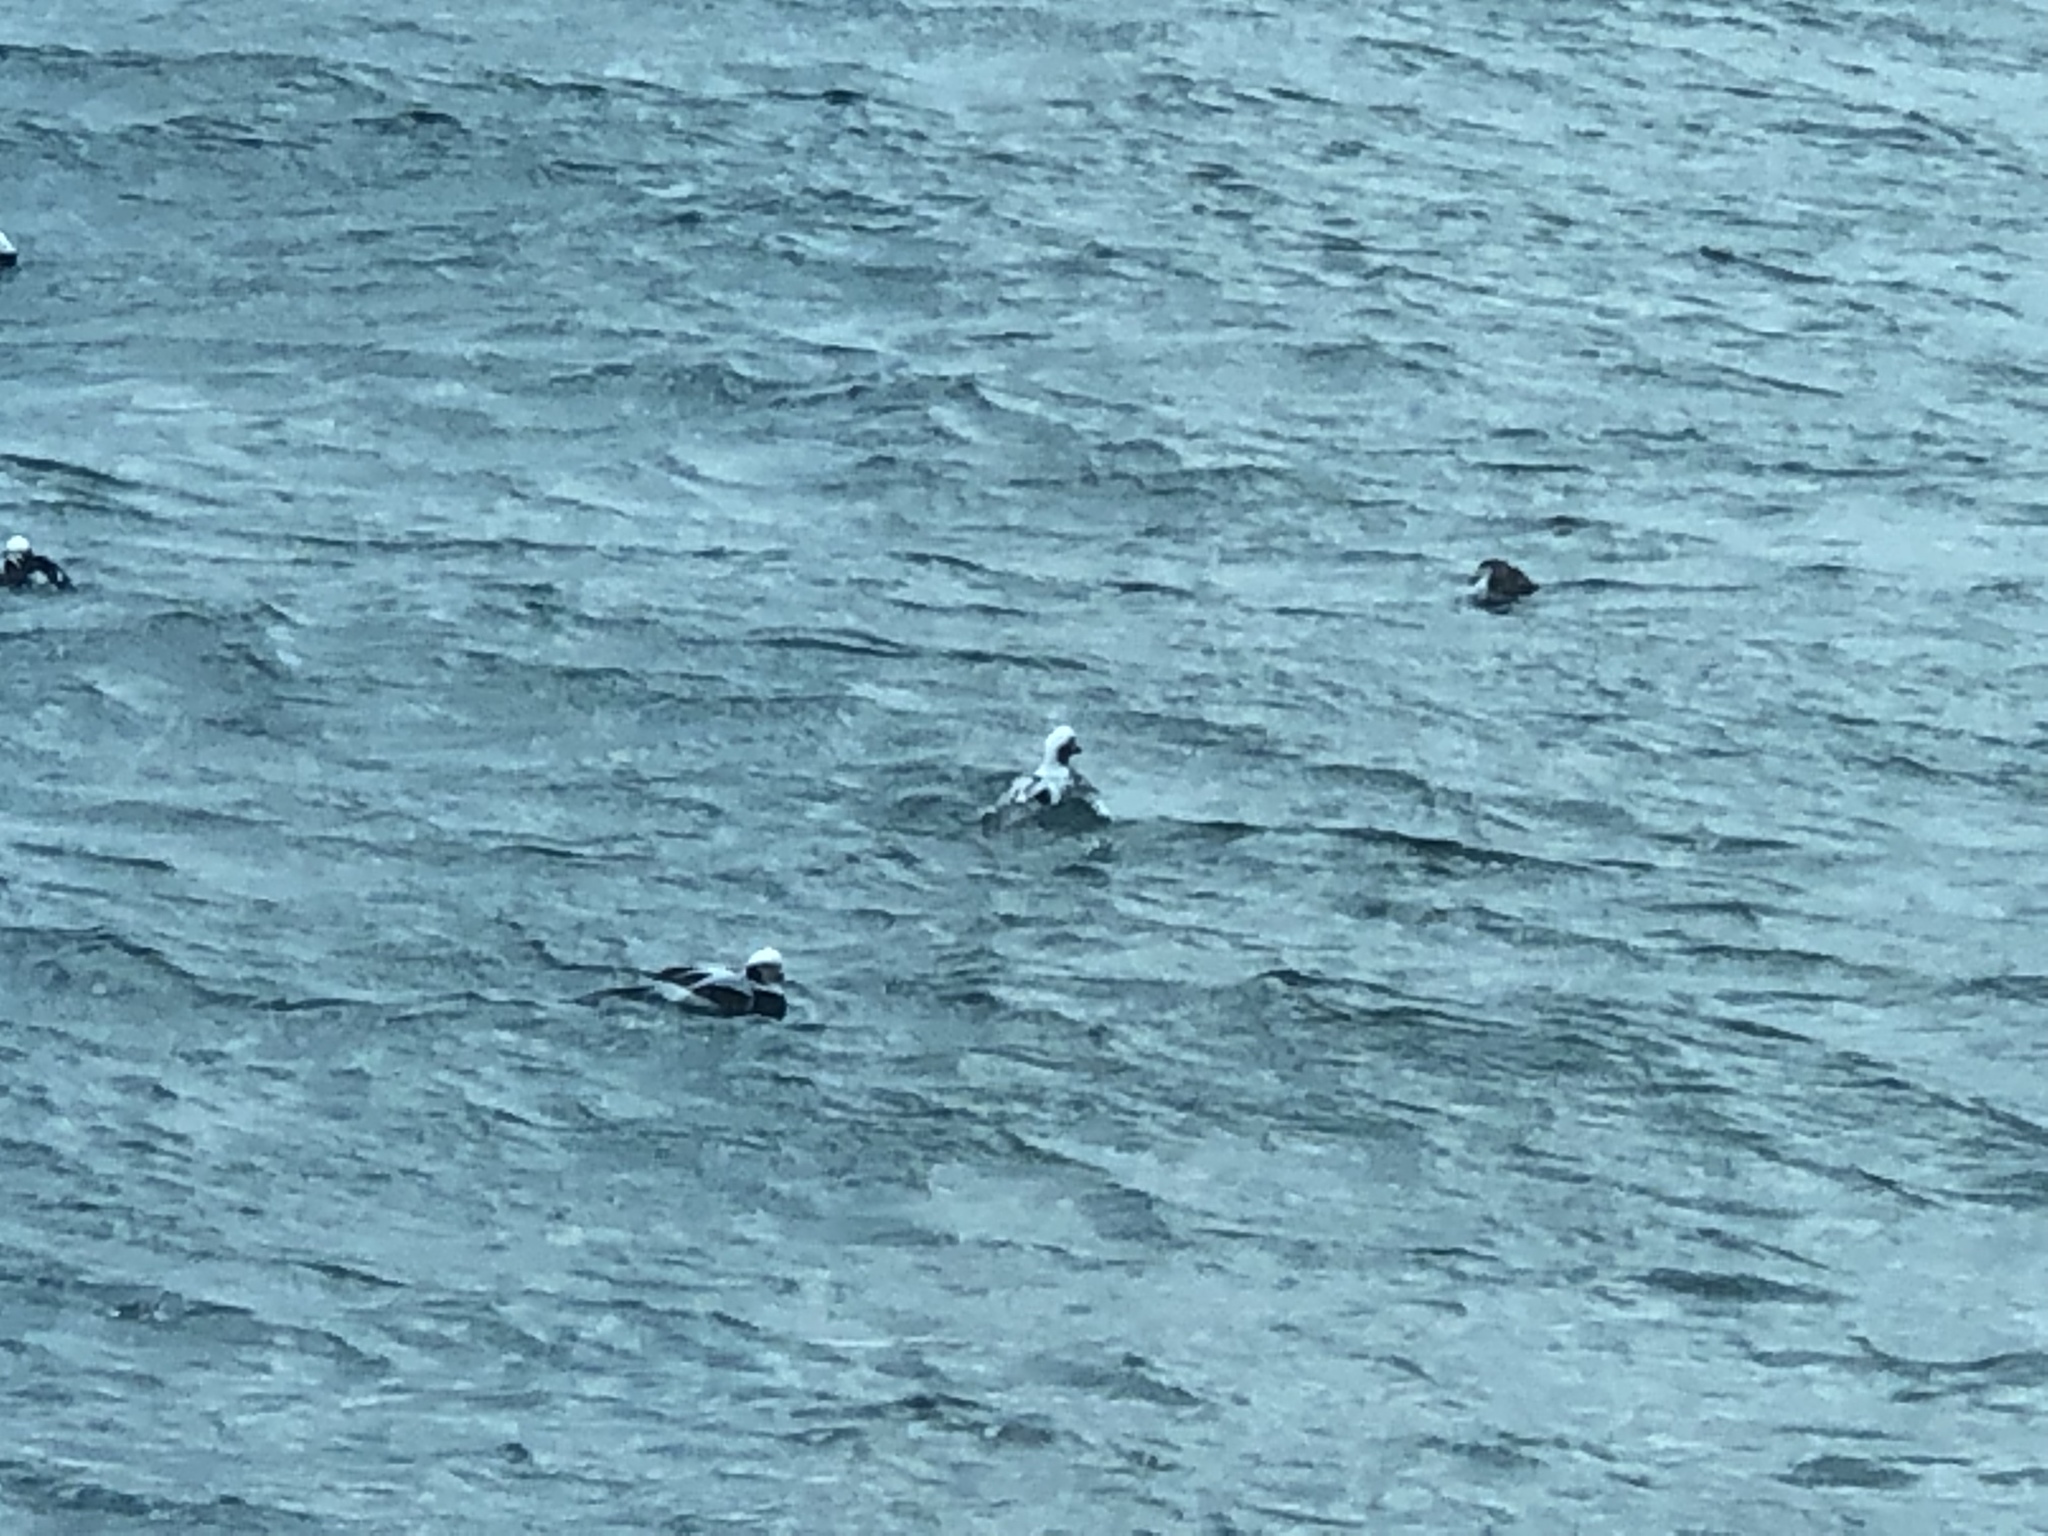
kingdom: Animalia
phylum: Chordata
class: Aves
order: Anseriformes
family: Anatidae
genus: Clangula
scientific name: Clangula hyemalis
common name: Long-tailed duck
